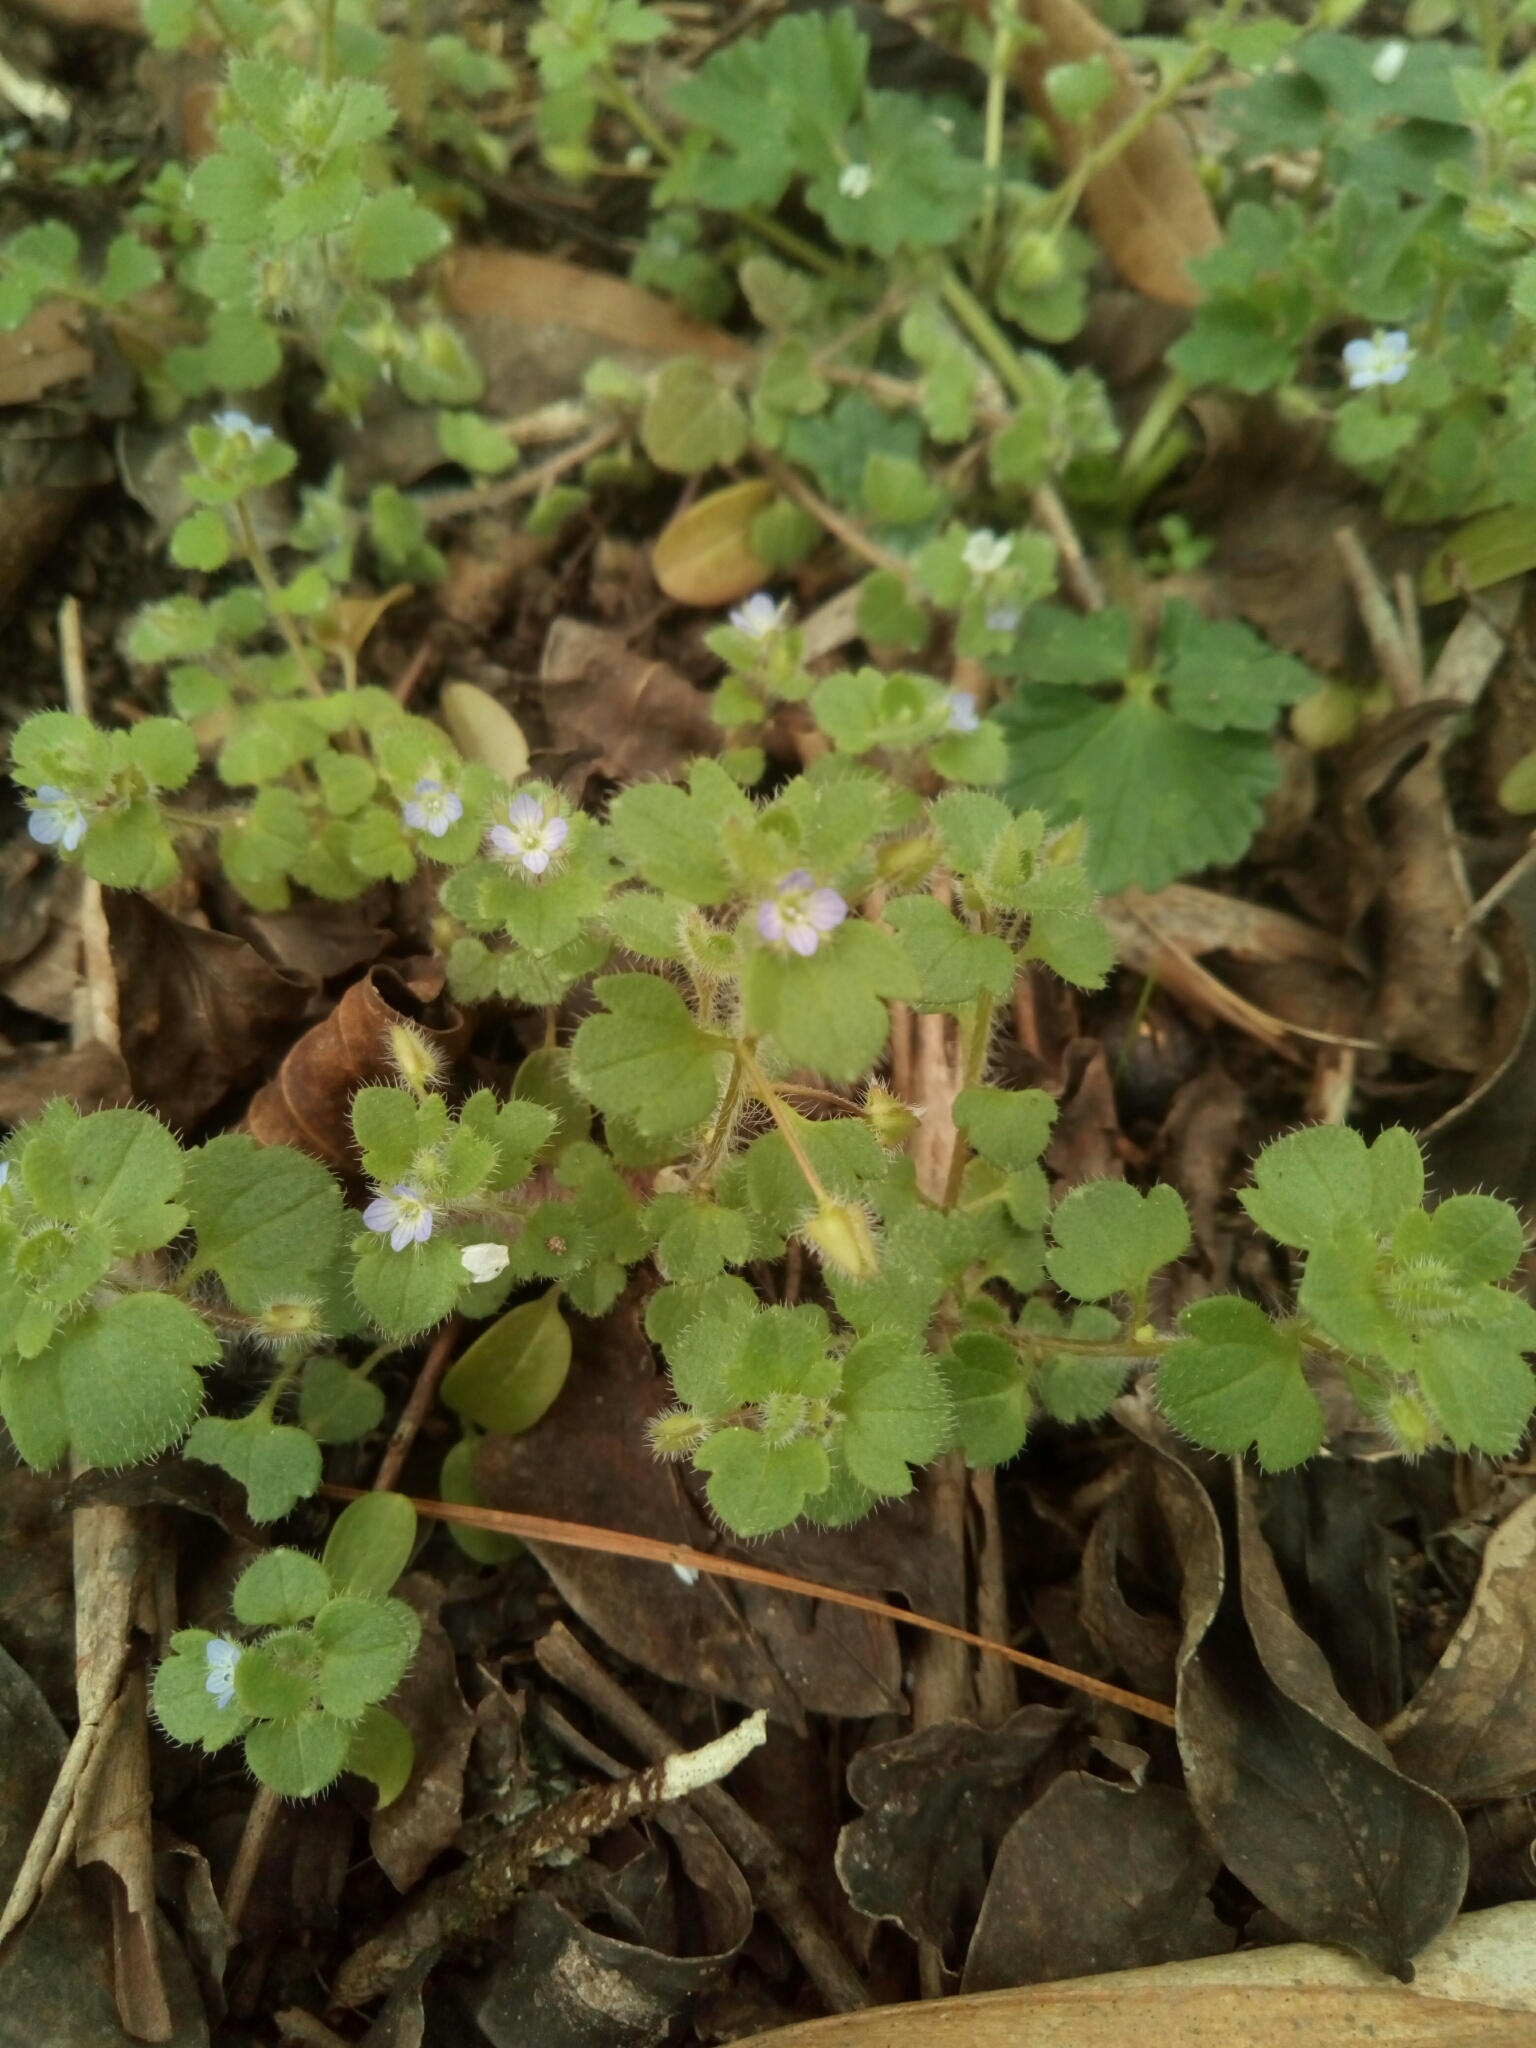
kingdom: Plantae
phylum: Tracheophyta
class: Magnoliopsida
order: Lamiales
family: Plantaginaceae
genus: Veronica
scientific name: Veronica hederifolia
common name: Ivy-leaved speedwell
